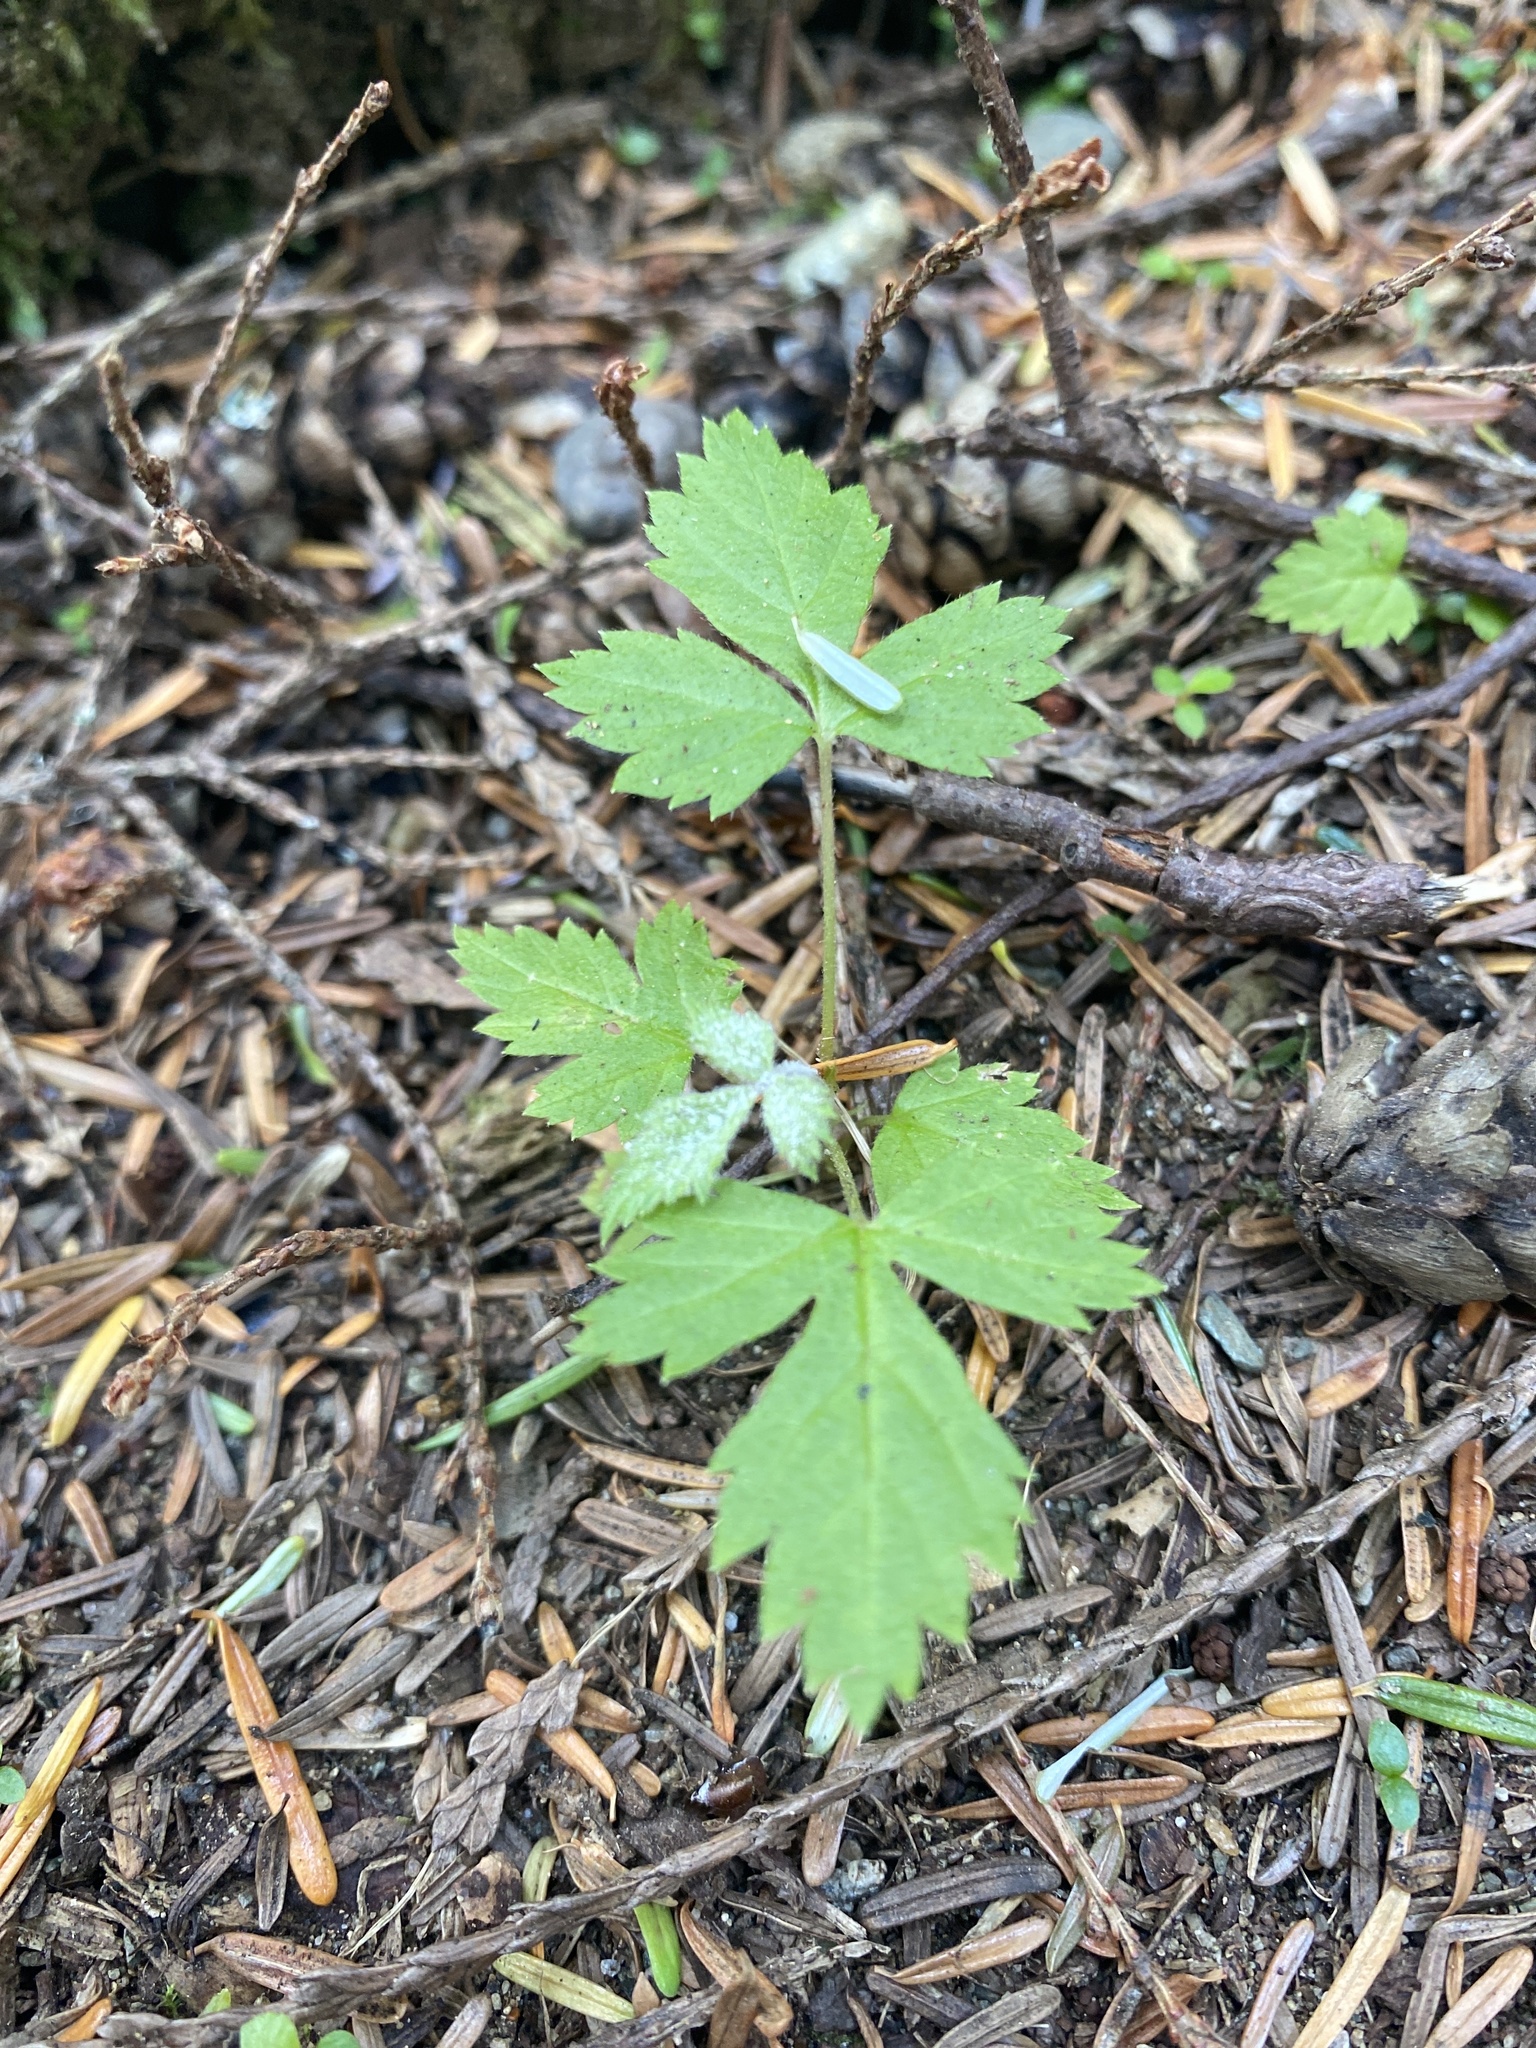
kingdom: Plantae
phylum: Tracheophyta
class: Magnoliopsida
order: Saxifragales
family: Saxifragaceae
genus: Tiarella
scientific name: Tiarella trifoliata
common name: Sugar-scoop
